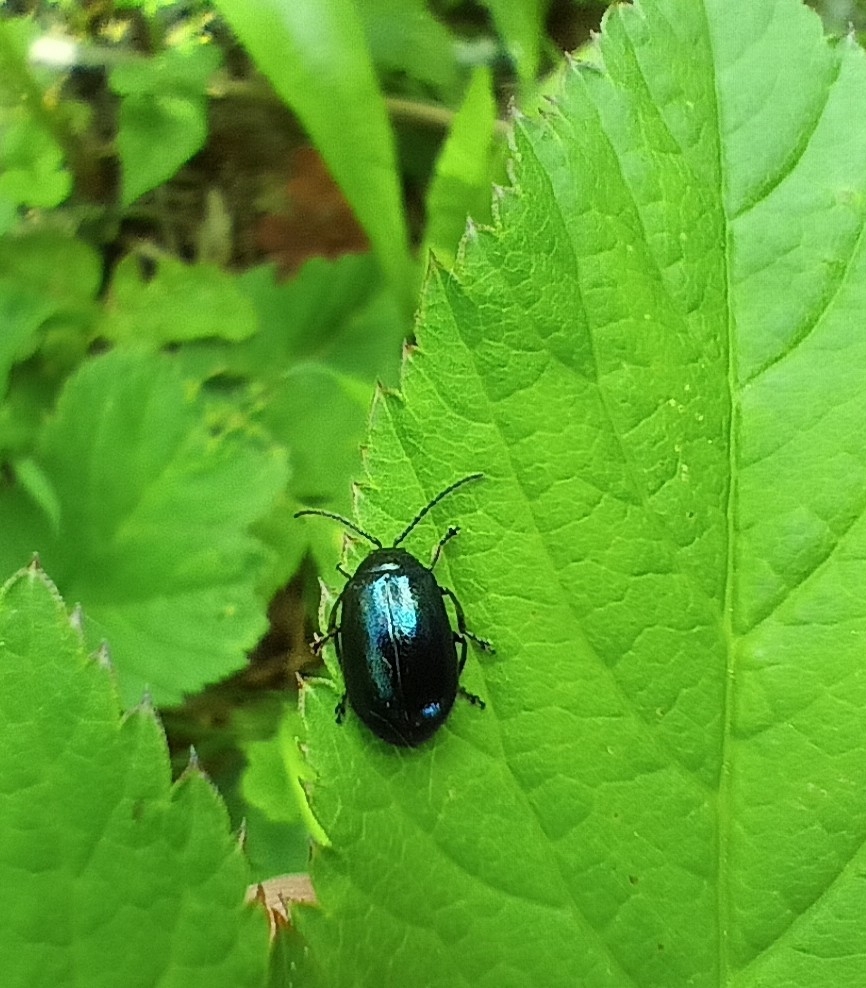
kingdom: Animalia
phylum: Arthropoda
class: Insecta
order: Coleoptera
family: Chrysomelidae
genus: Agelastica
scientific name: Agelastica alni
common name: Alder leaf beetle
